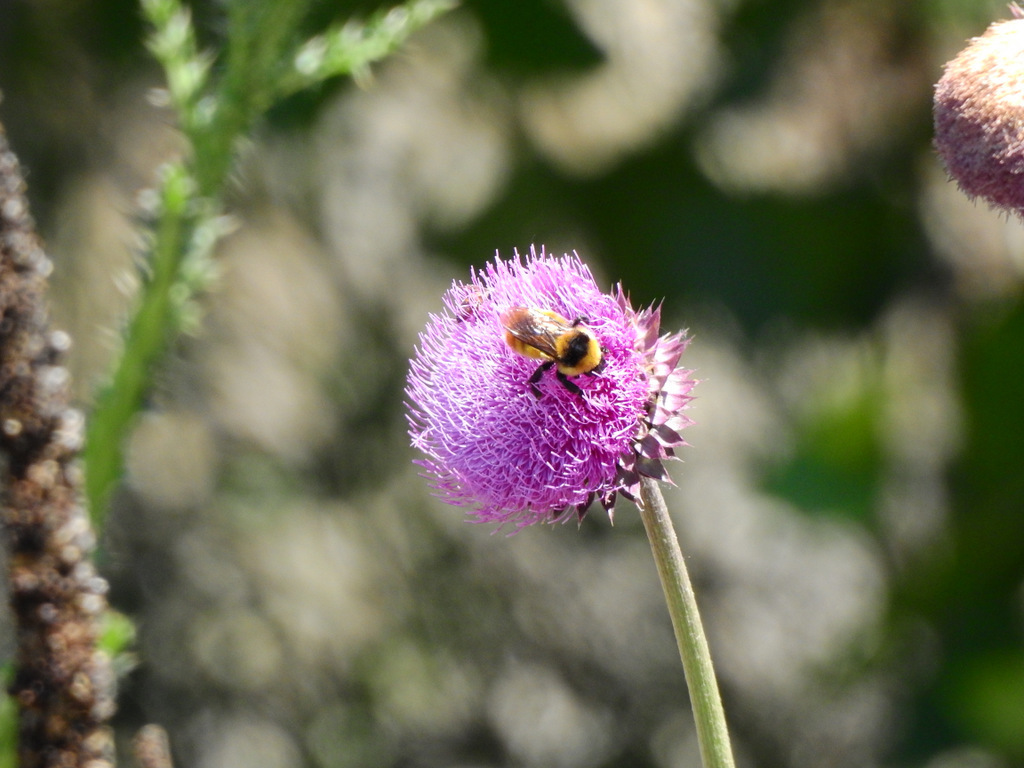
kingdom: Animalia
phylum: Arthropoda
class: Insecta
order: Hymenoptera
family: Apidae
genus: Bombus
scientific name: Bombus opifex
